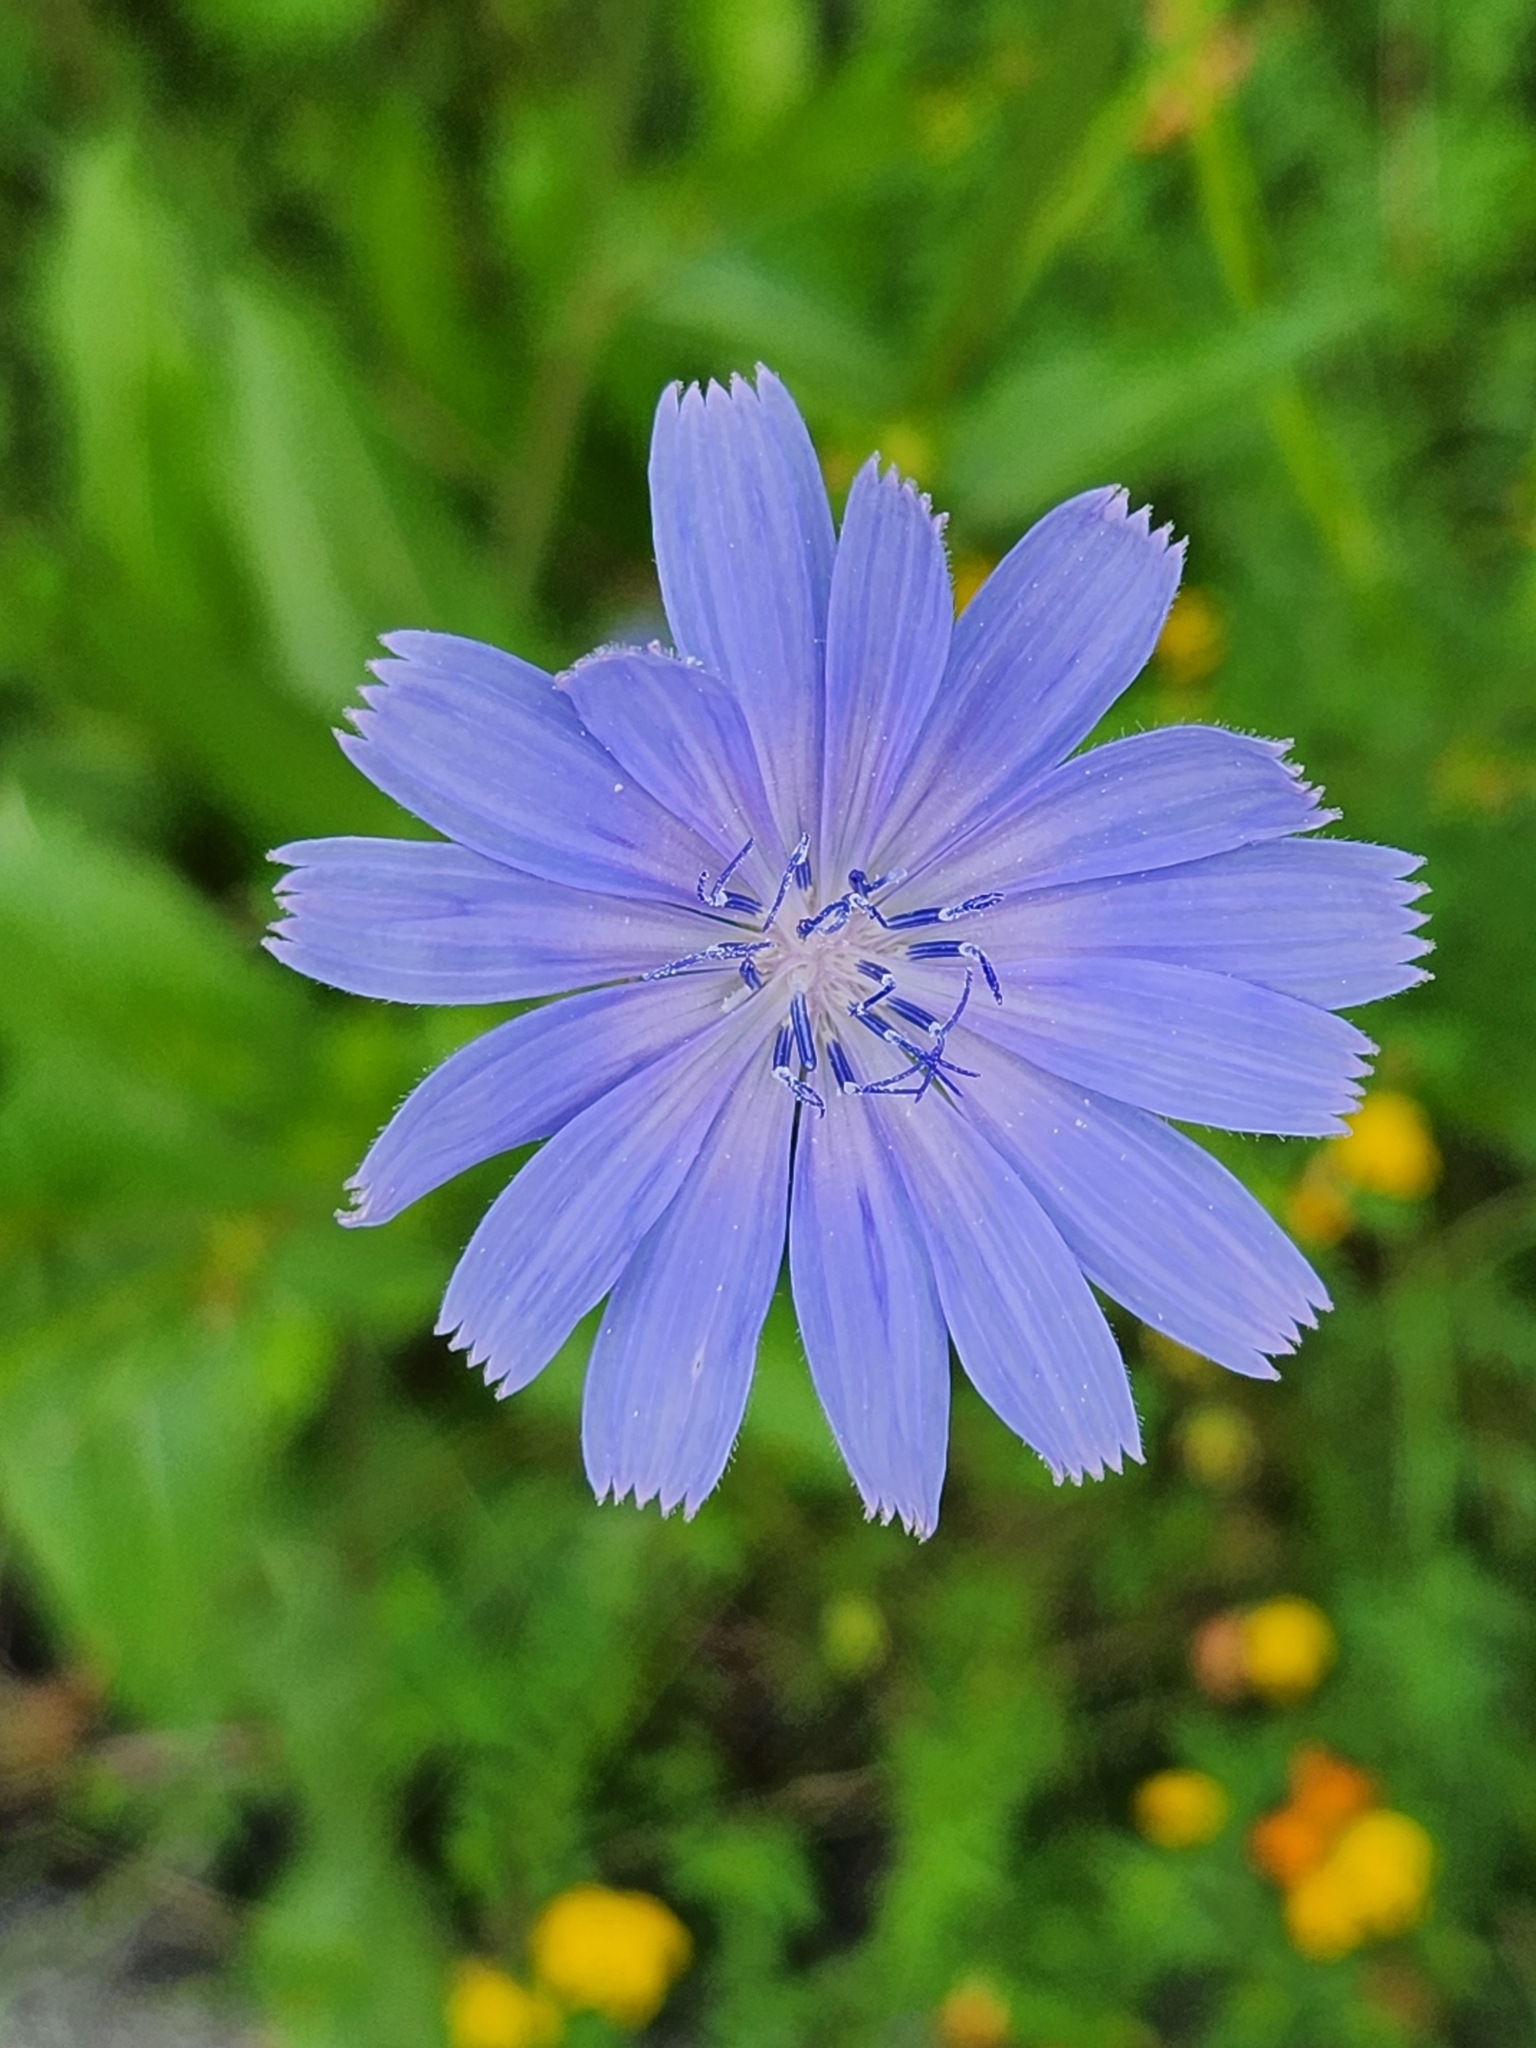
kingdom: Plantae
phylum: Tracheophyta
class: Magnoliopsida
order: Asterales
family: Asteraceae
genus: Cichorium
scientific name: Cichorium intybus
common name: Chicory
